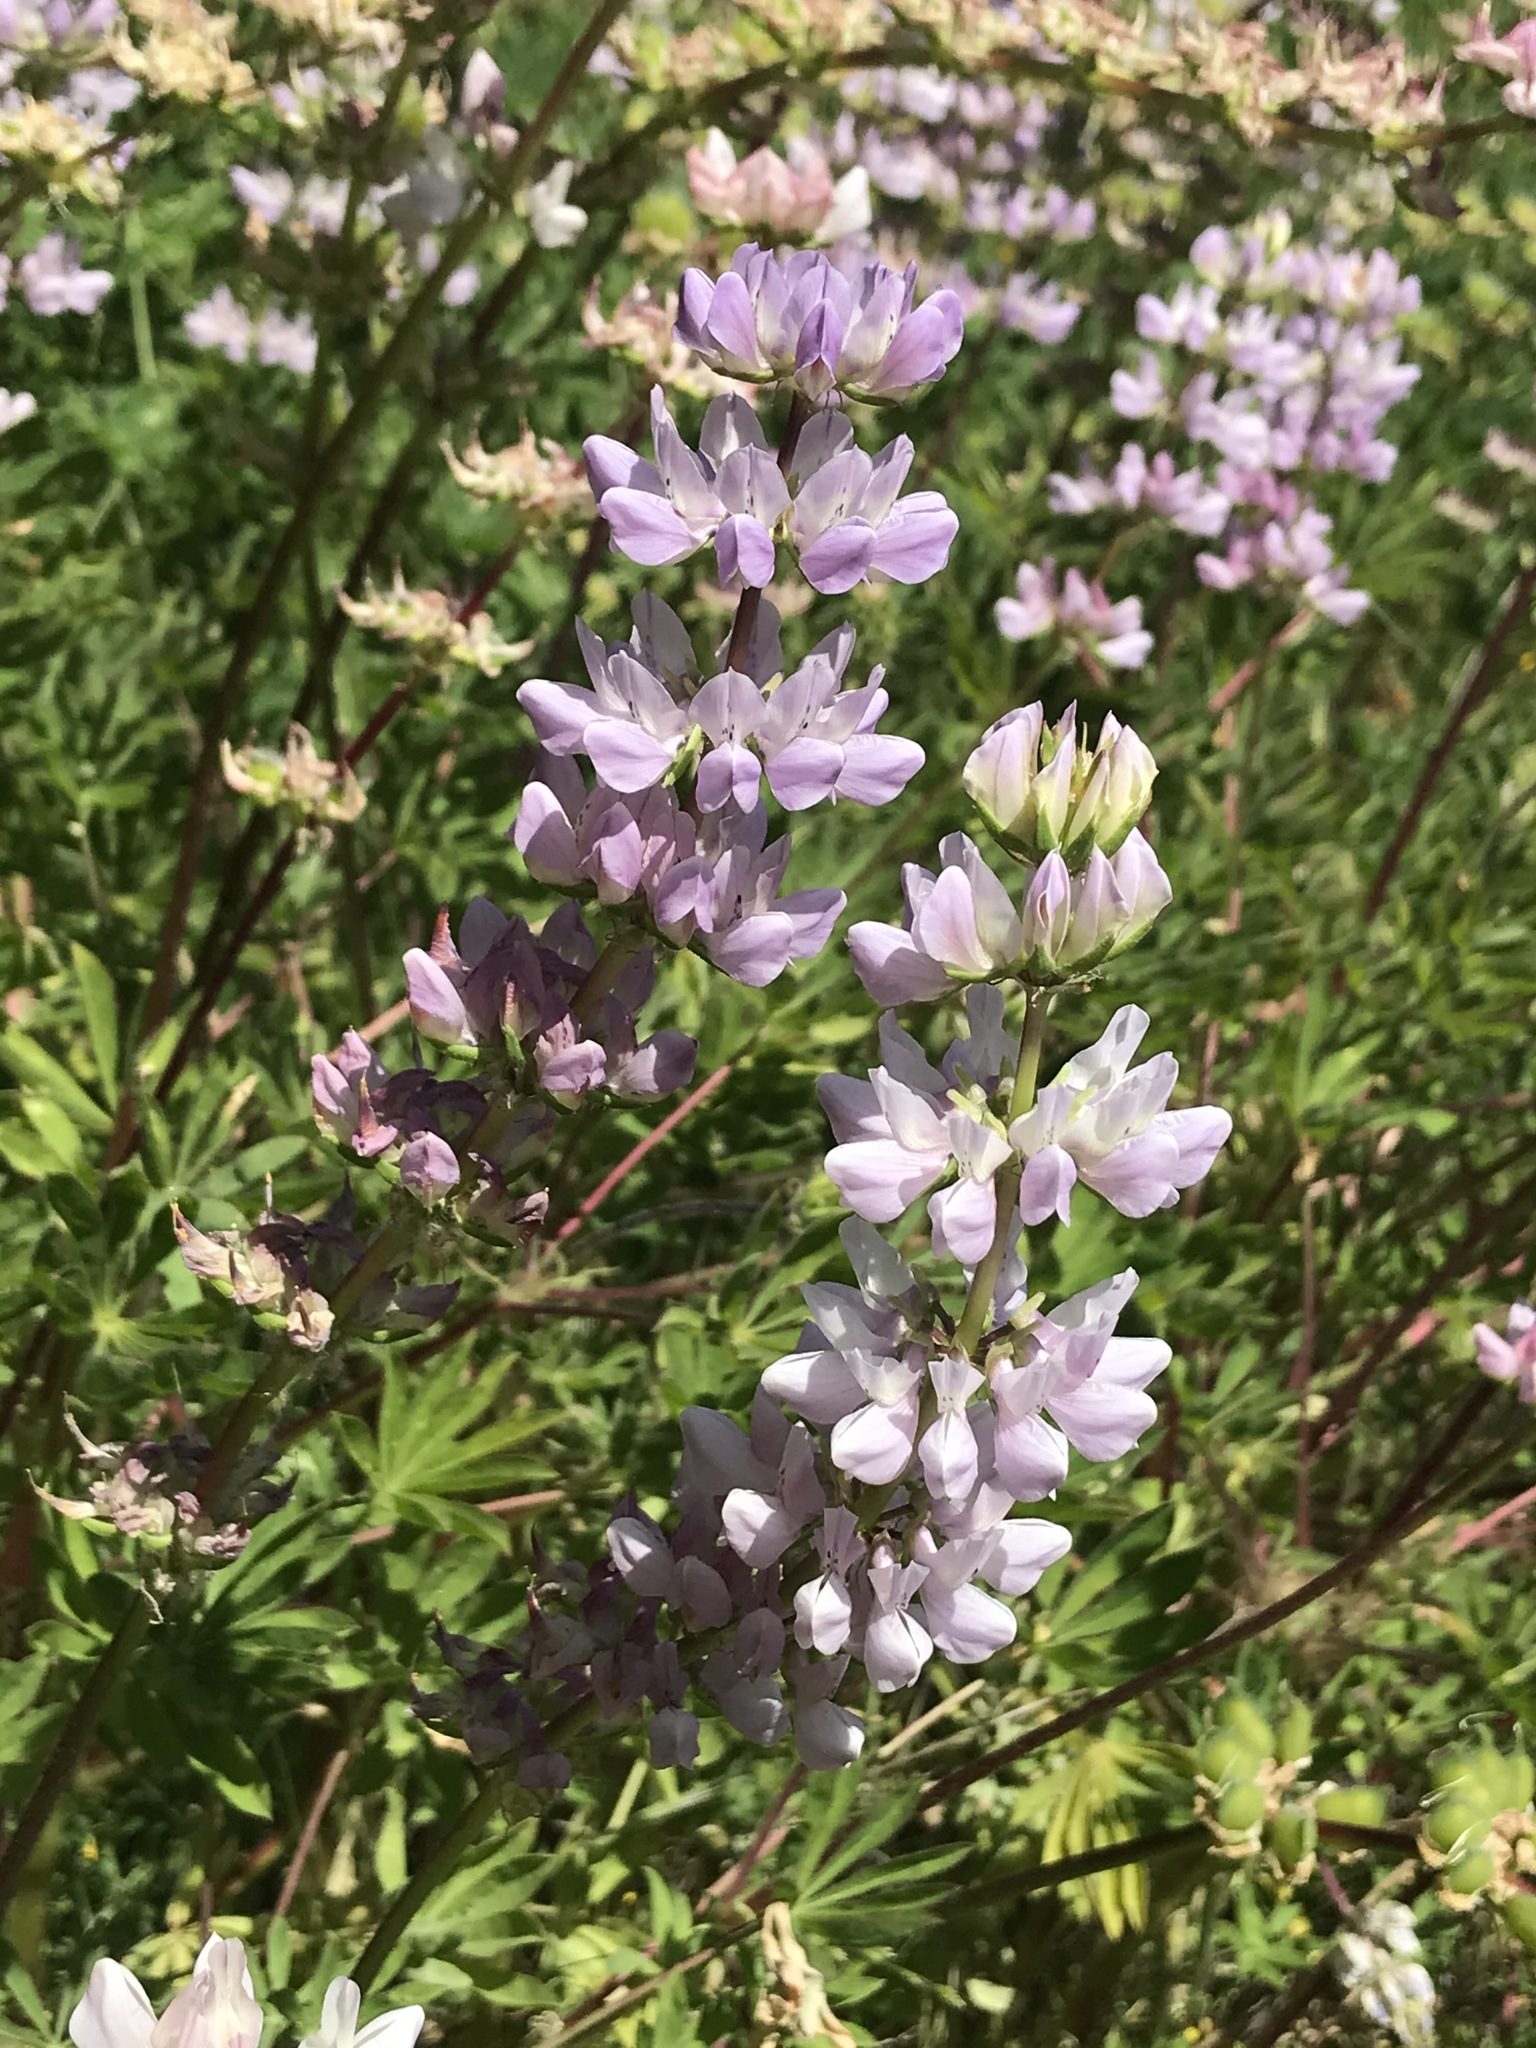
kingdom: Plantae
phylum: Tracheophyta
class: Magnoliopsida
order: Fabales
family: Fabaceae
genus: Lupinus
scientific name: Lupinus microcarpus
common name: Chick lupine
